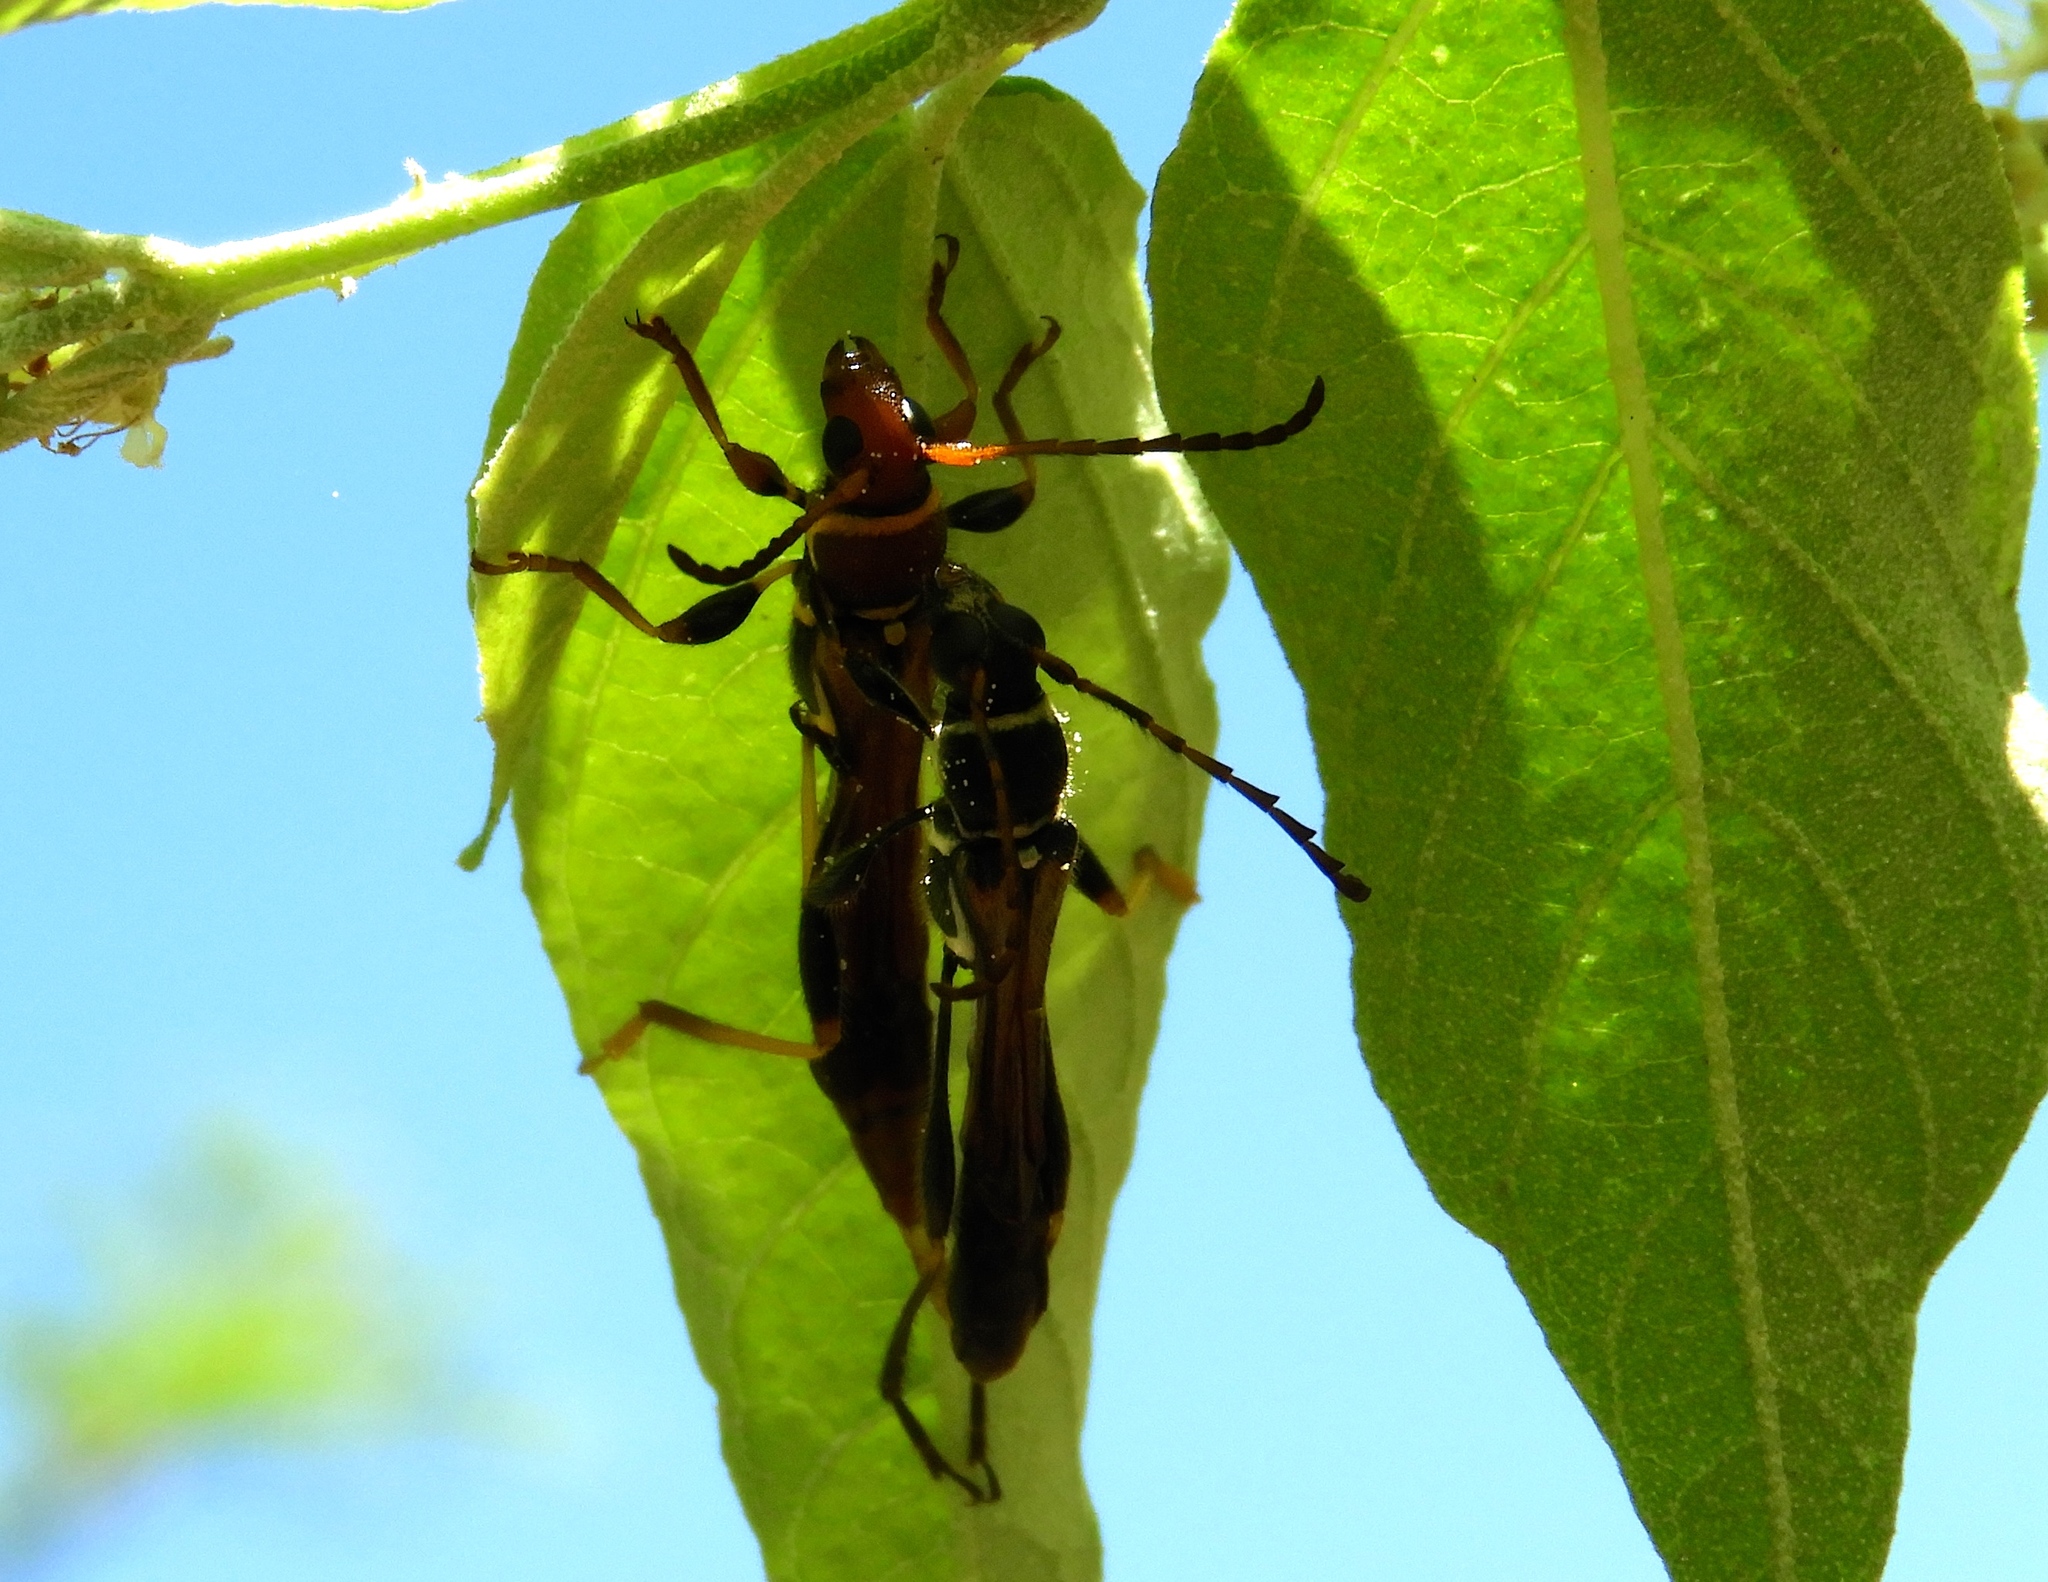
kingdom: Animalia
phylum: Arthropoda
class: Insecta
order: Coleoptera
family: Cerambycidae
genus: Odontocera
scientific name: Odontocera aurocincta
